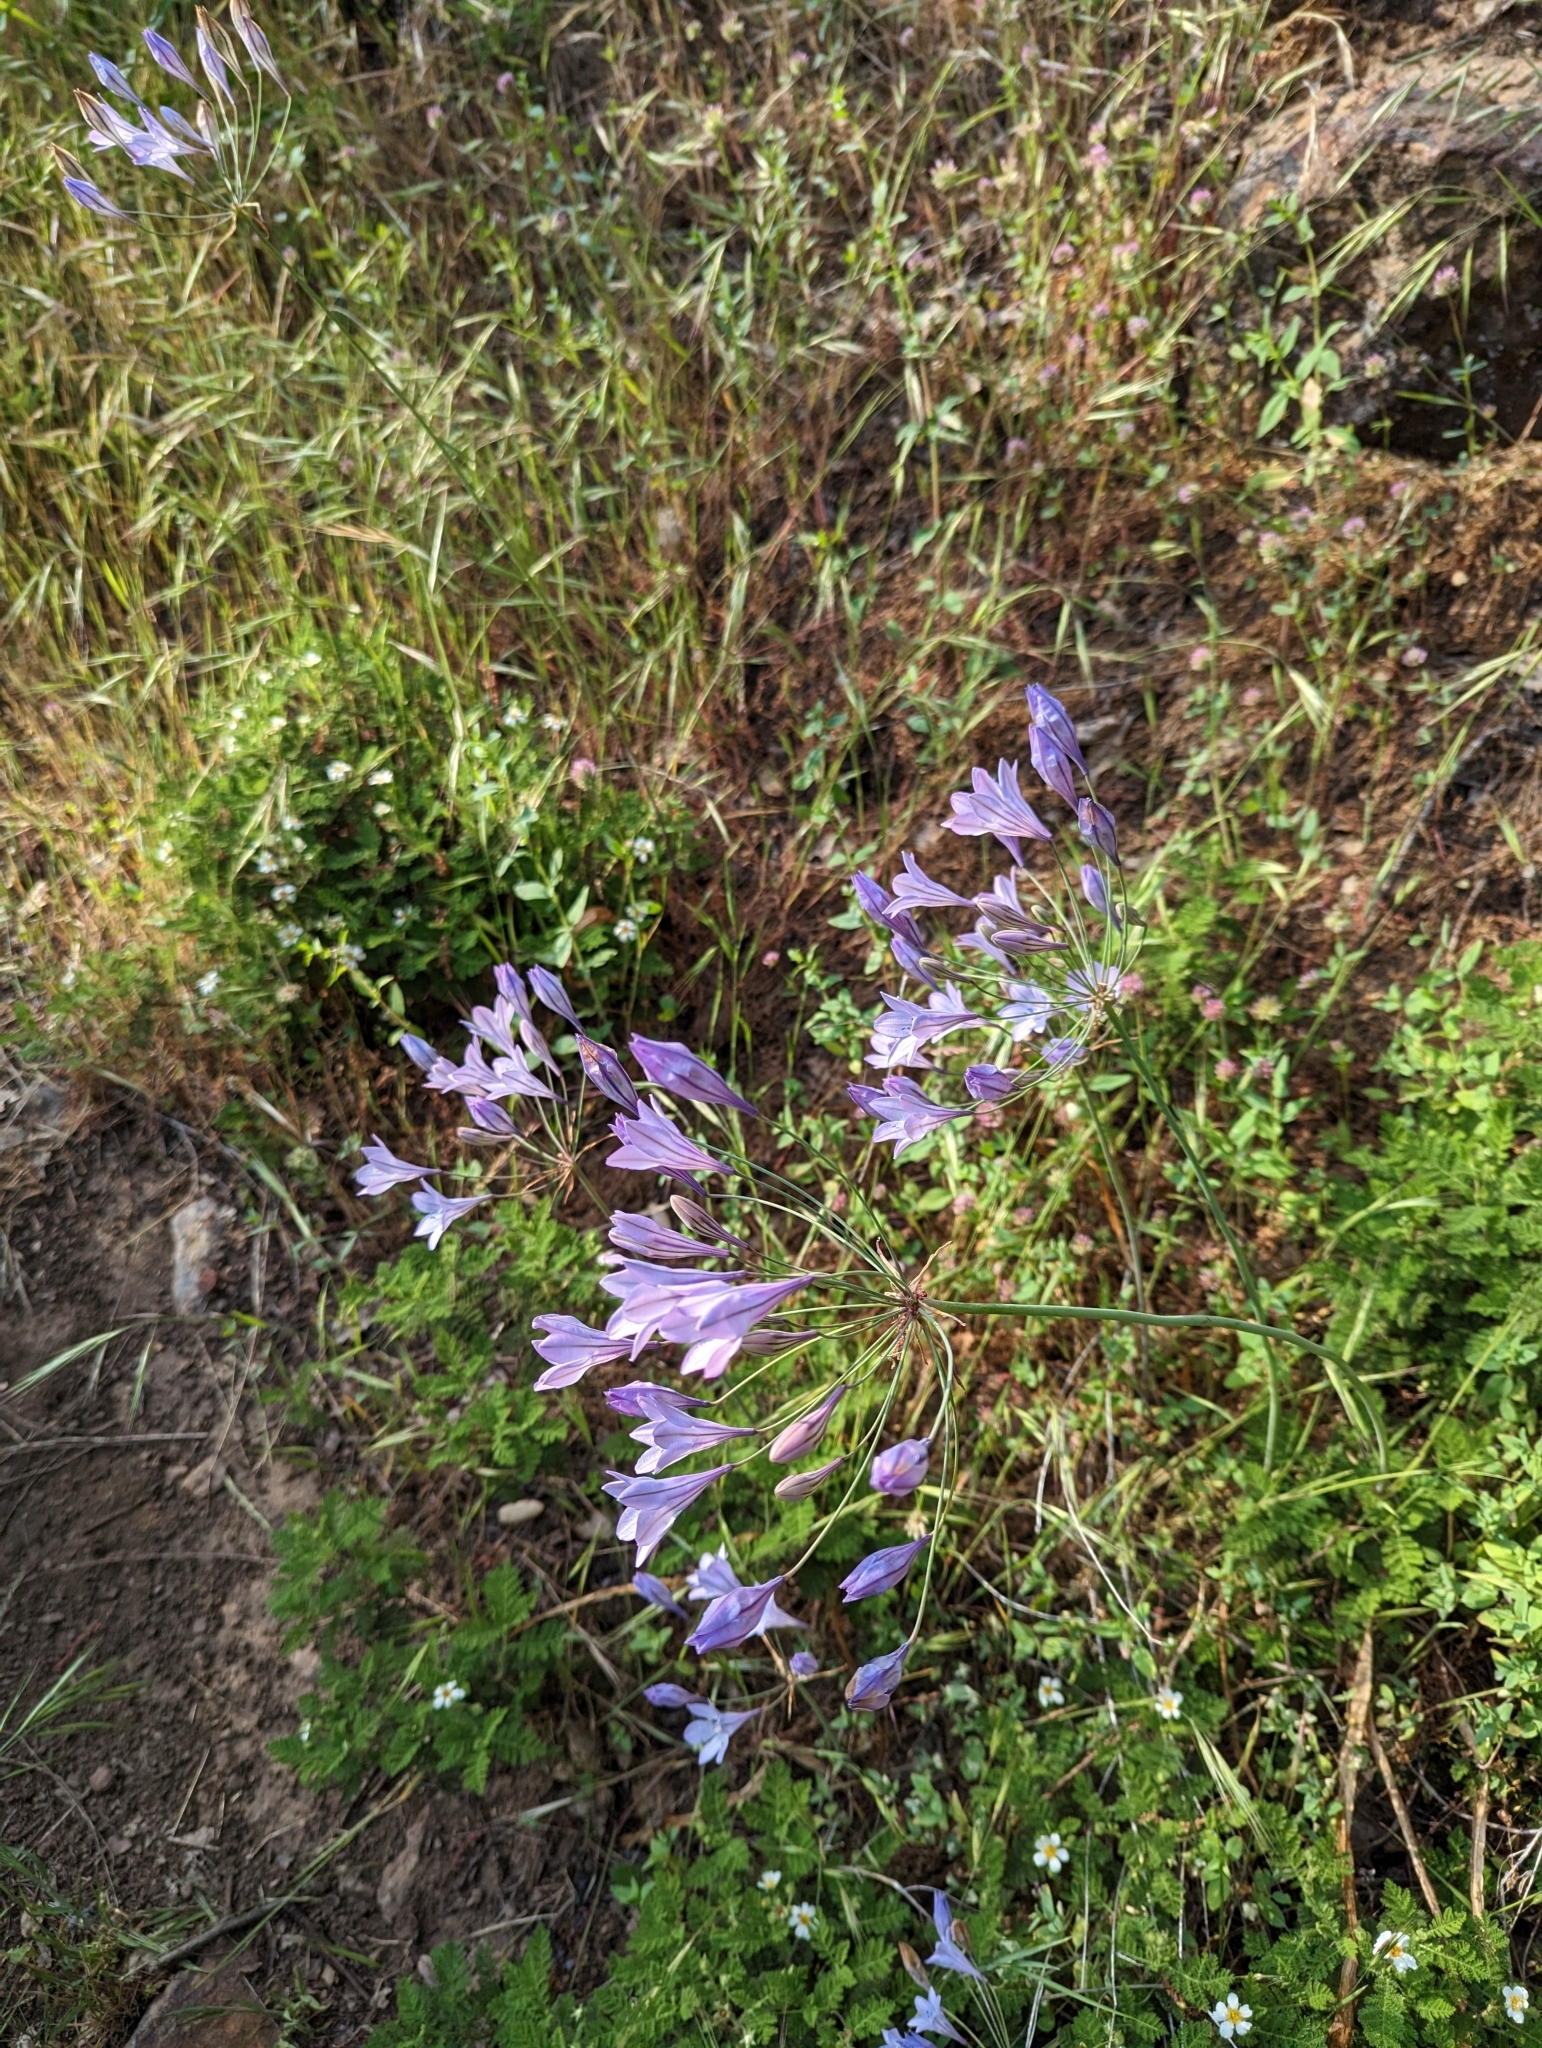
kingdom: Plantae
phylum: Tracheophyta
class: Liliopsida
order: Asparagales
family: Asparagaceae
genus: Triteleia
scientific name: Triteleia laxa
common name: Triplet-lily
